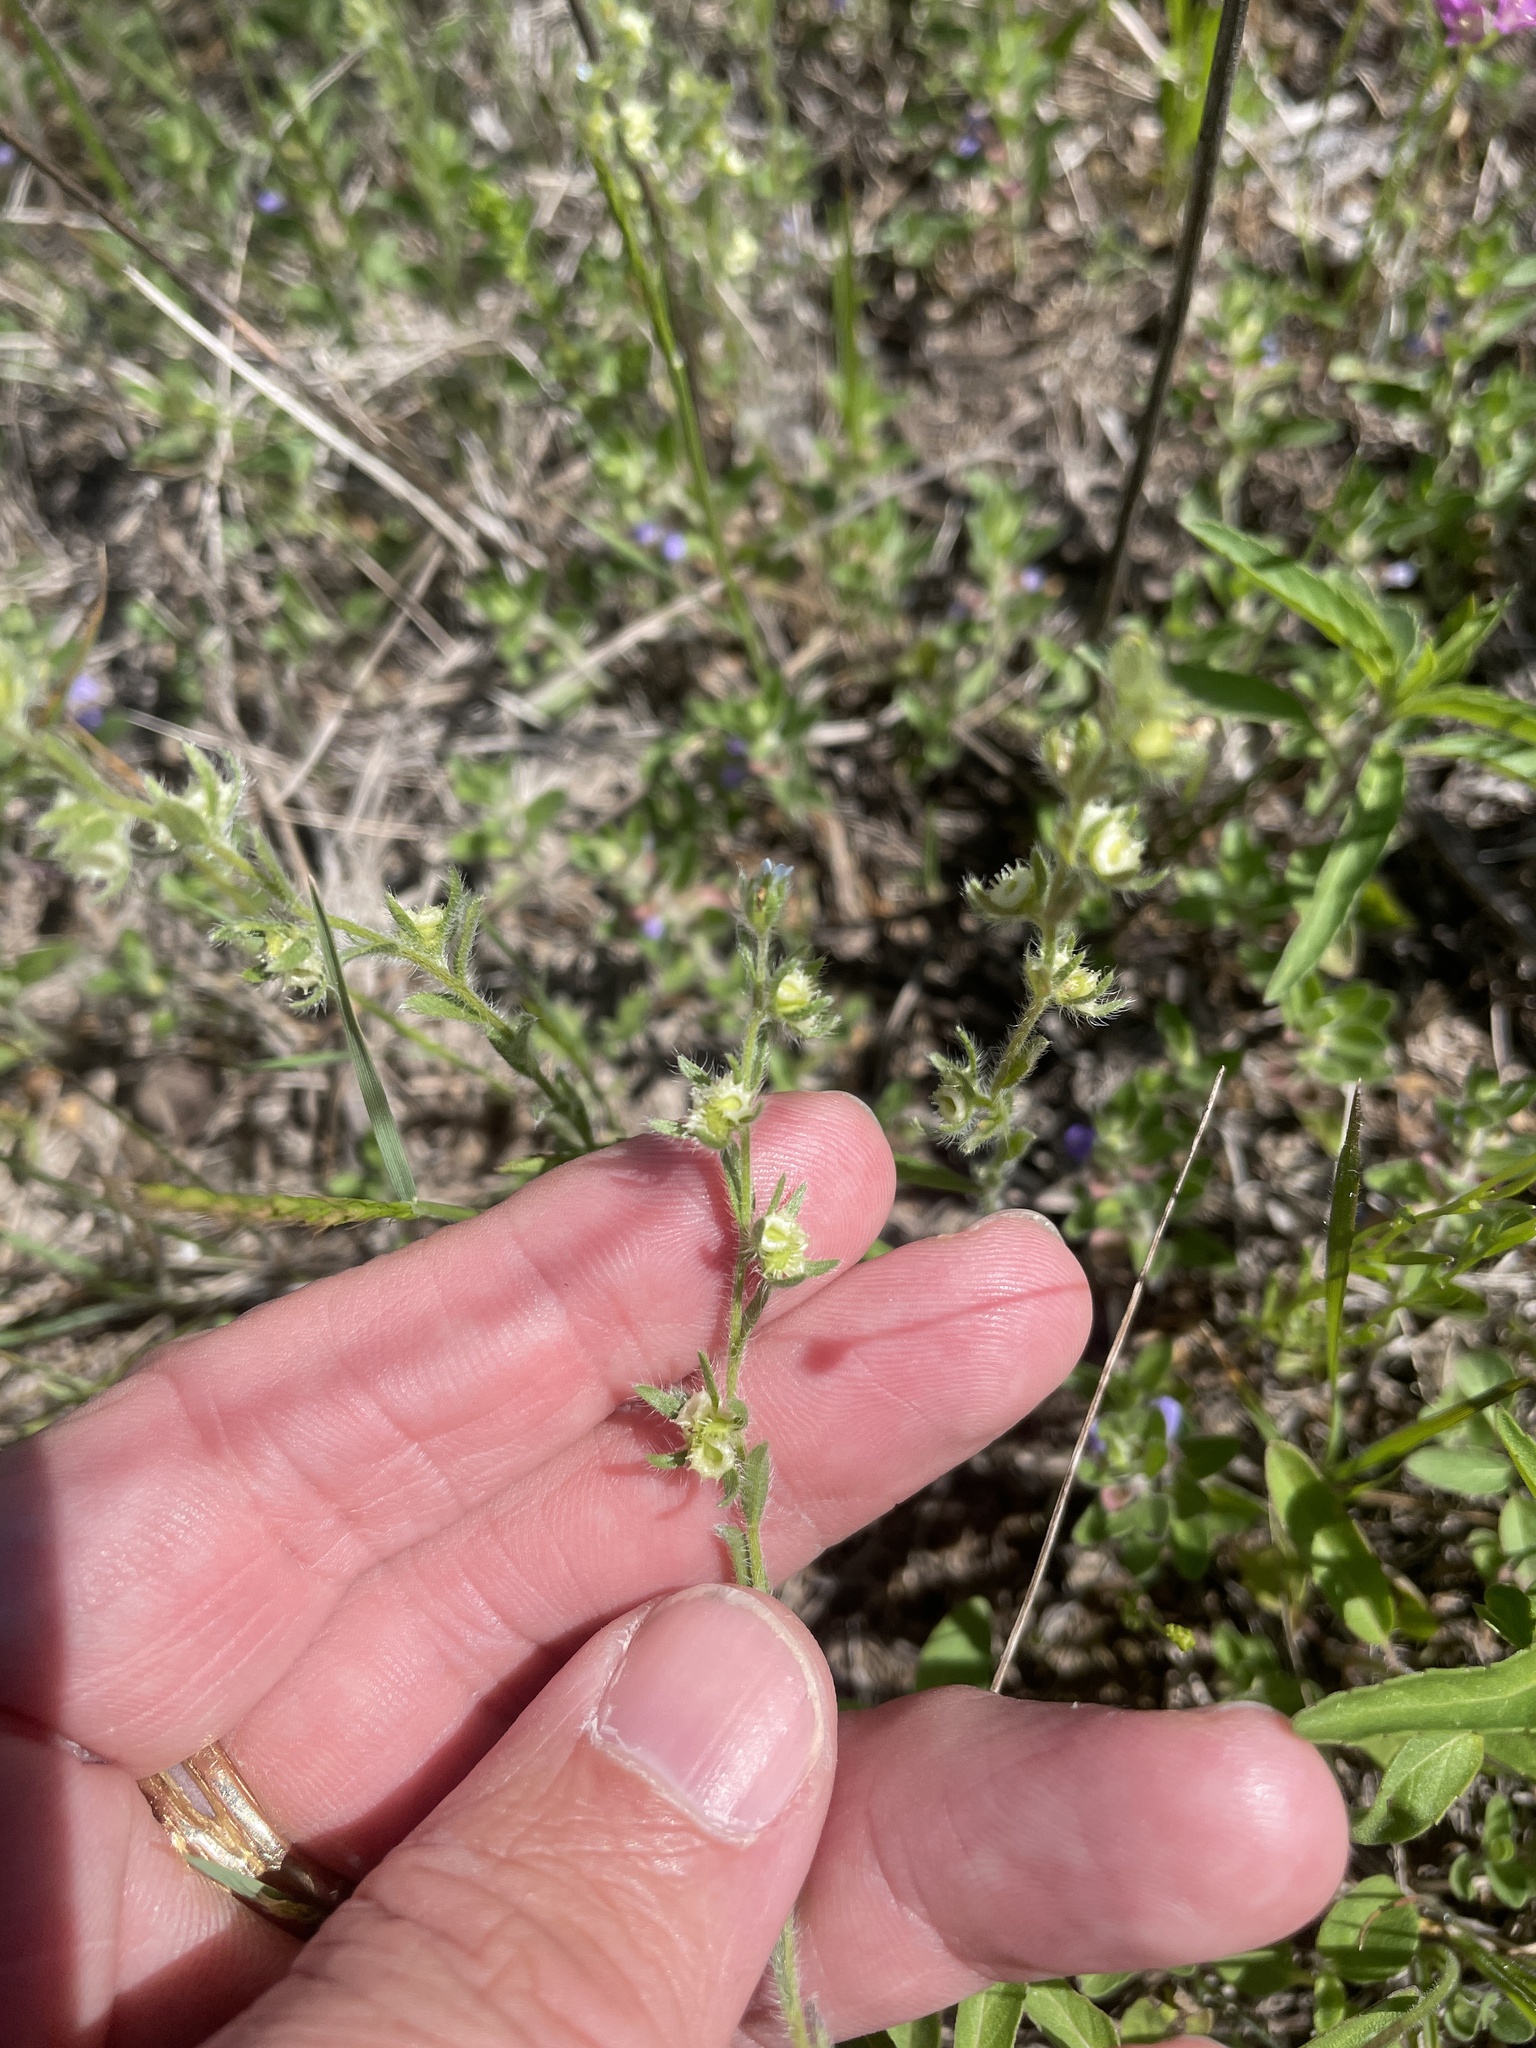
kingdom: Plantae
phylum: Tracheophyta
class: Magnoliopsida
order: Boraginales
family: Boraginaceae
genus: Lappula
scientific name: Lappula occidentalis
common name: Western stickseed
